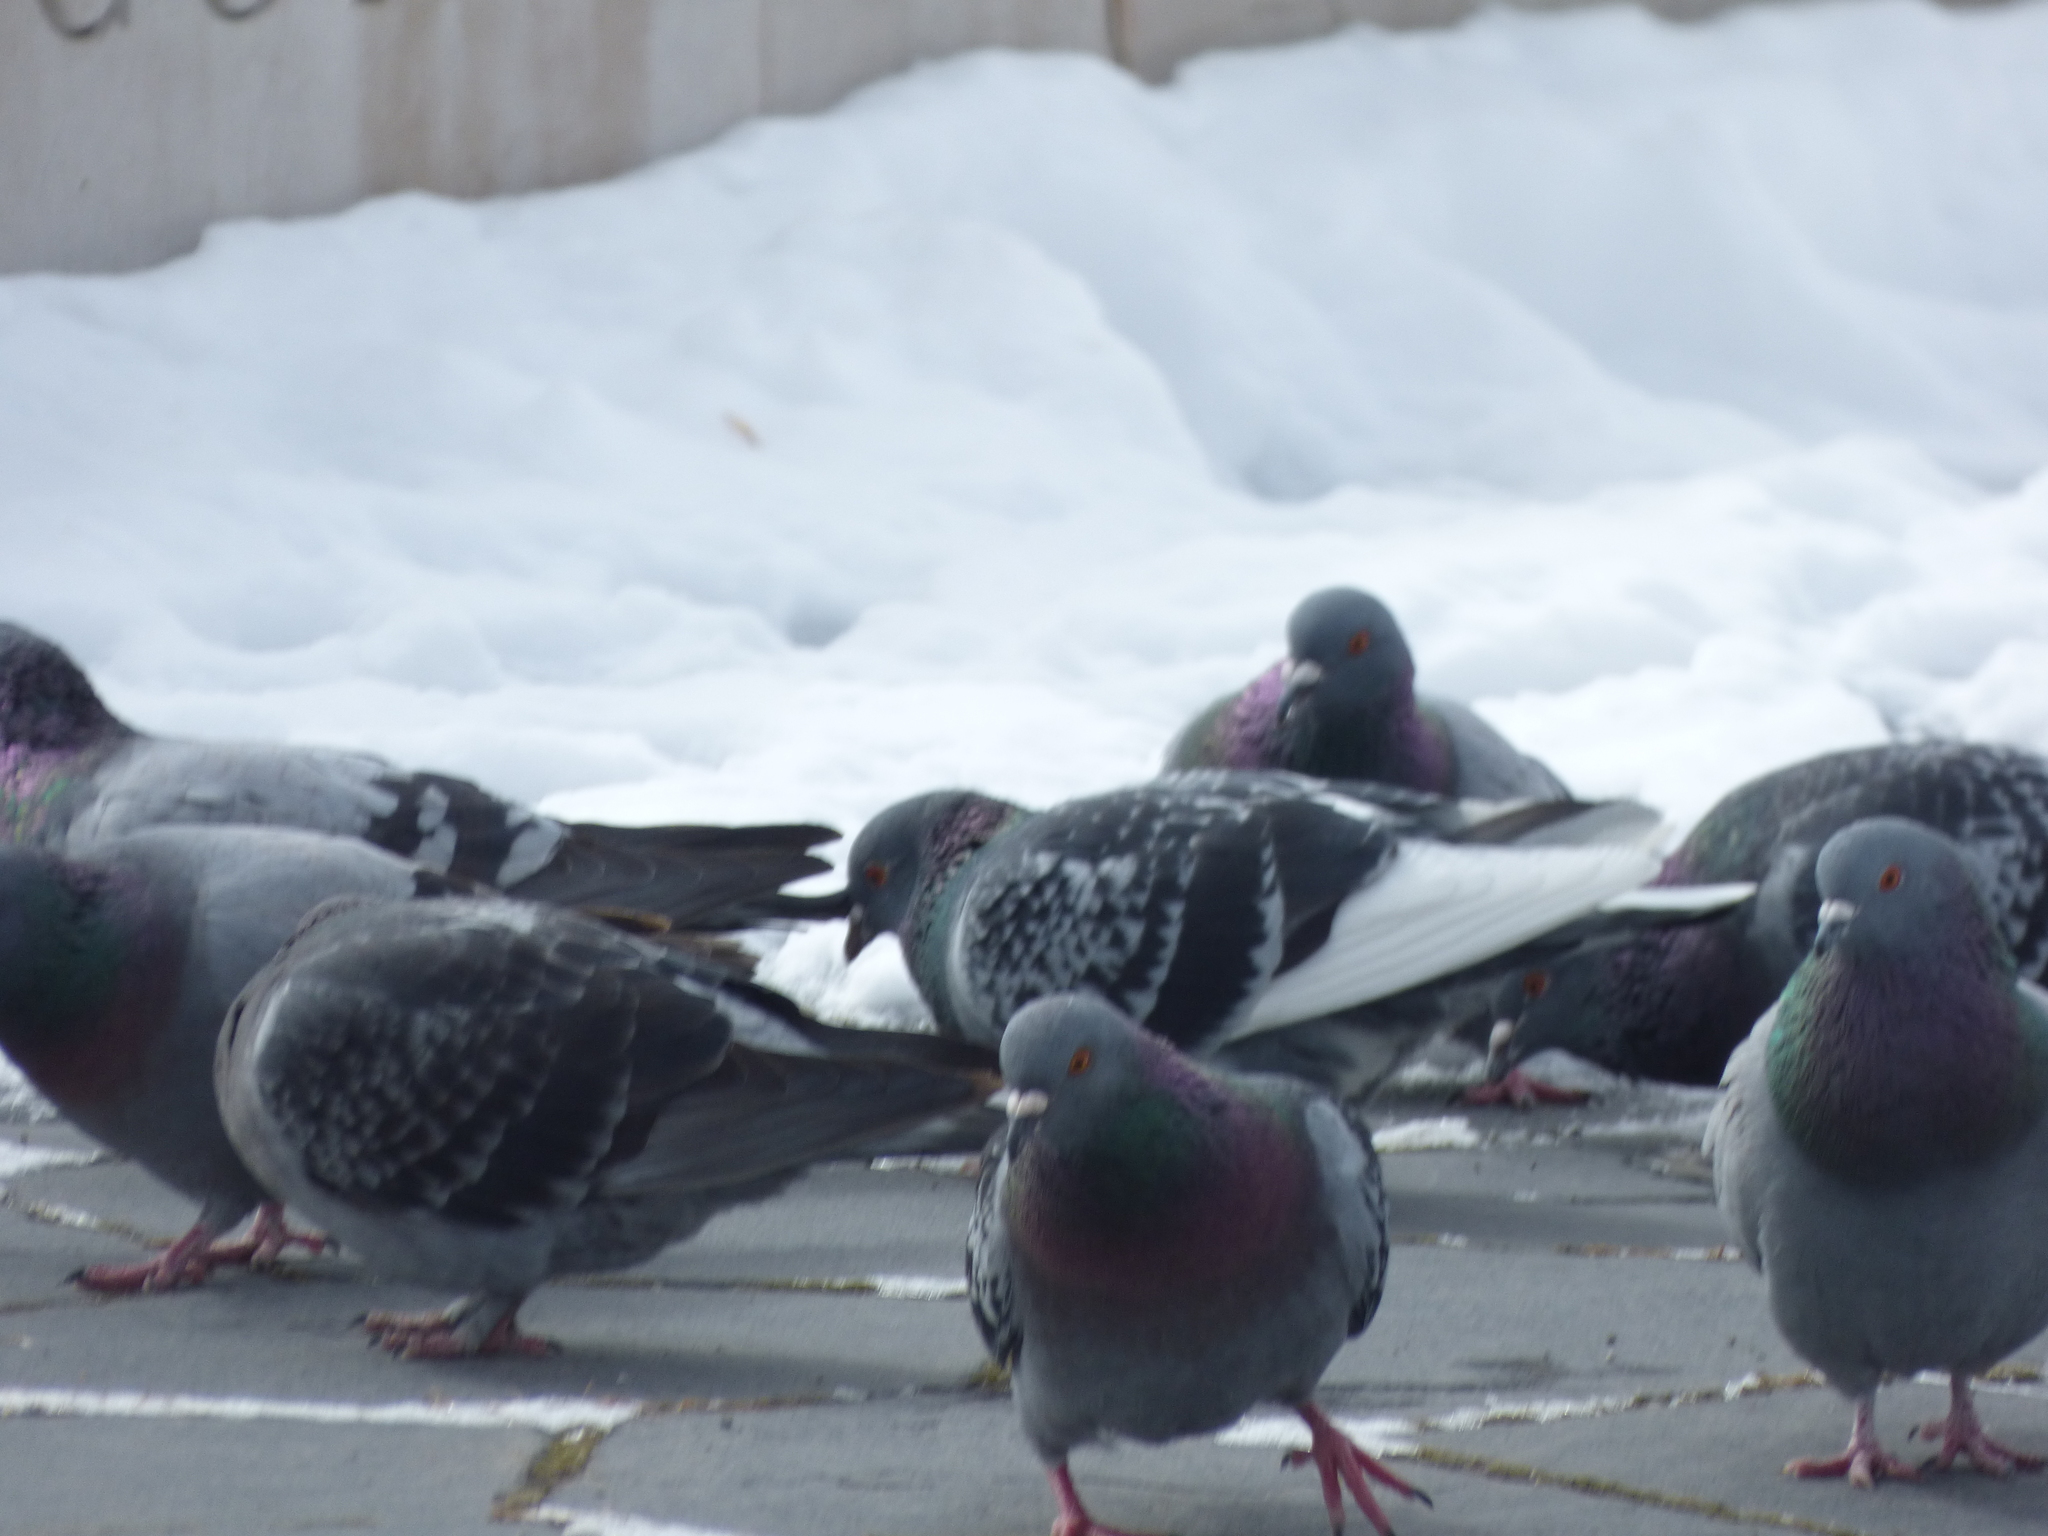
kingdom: Animalia
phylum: Chordata
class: Aves
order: Columbiformes
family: Columbidae
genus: Columba
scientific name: Columba livia
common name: Rock pigeon
